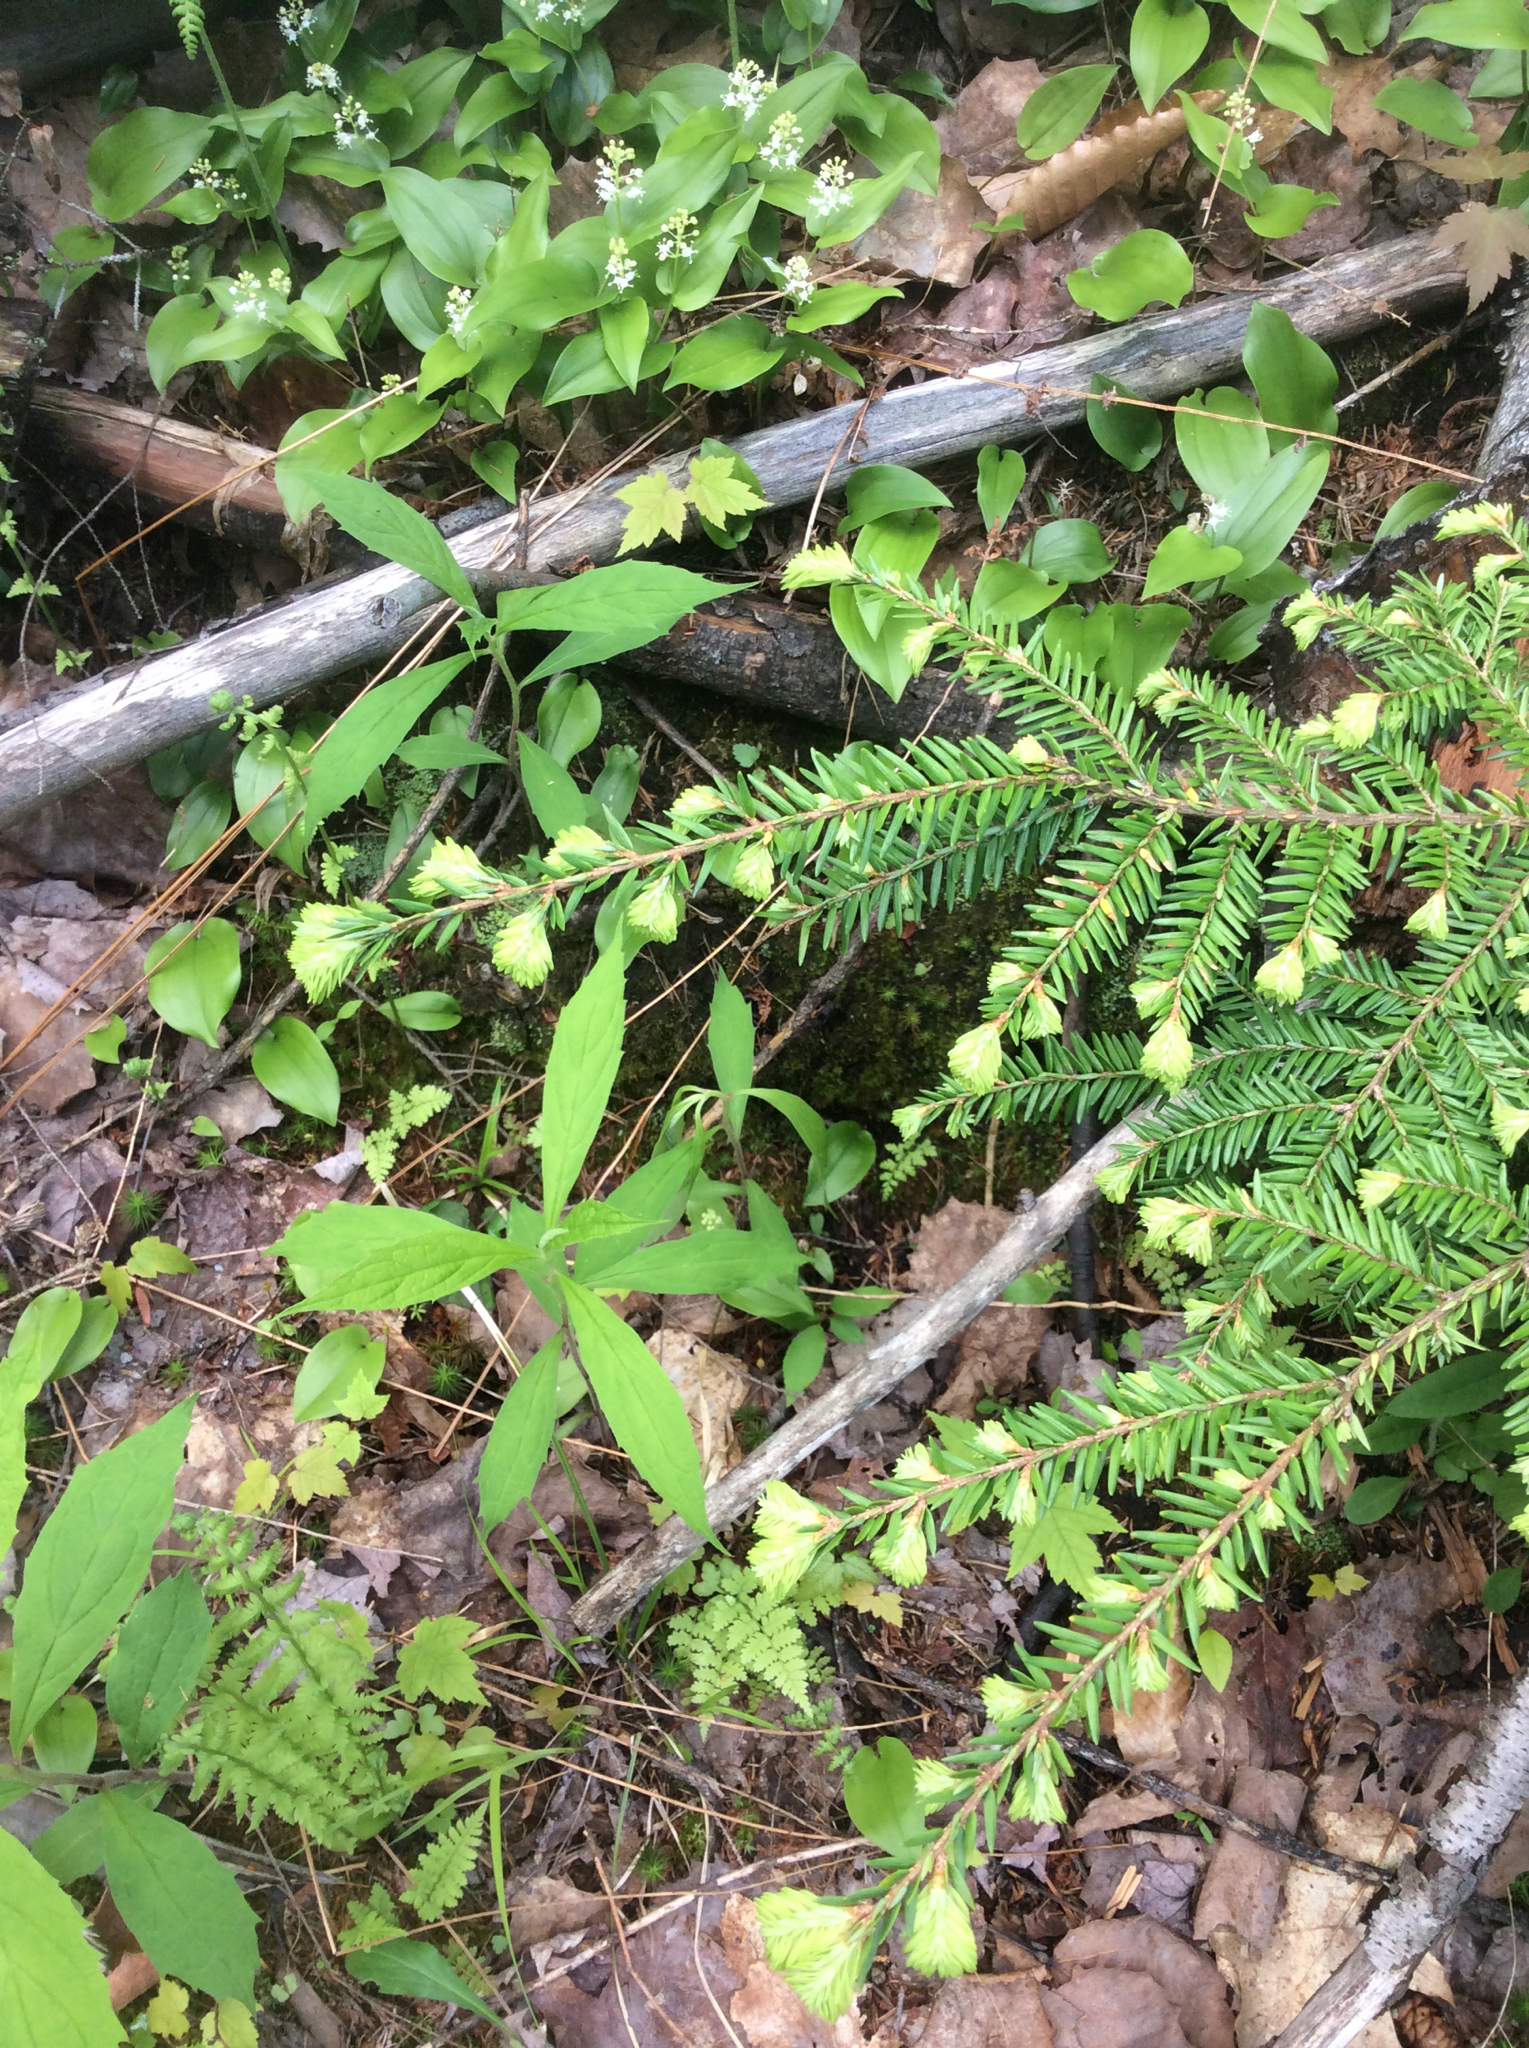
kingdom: Plantae
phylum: Tracheophyta
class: Pinopsida
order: Pinales
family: Pinaceae
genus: Tsuga
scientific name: Tsuga canadensis
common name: Eastern hemlock
